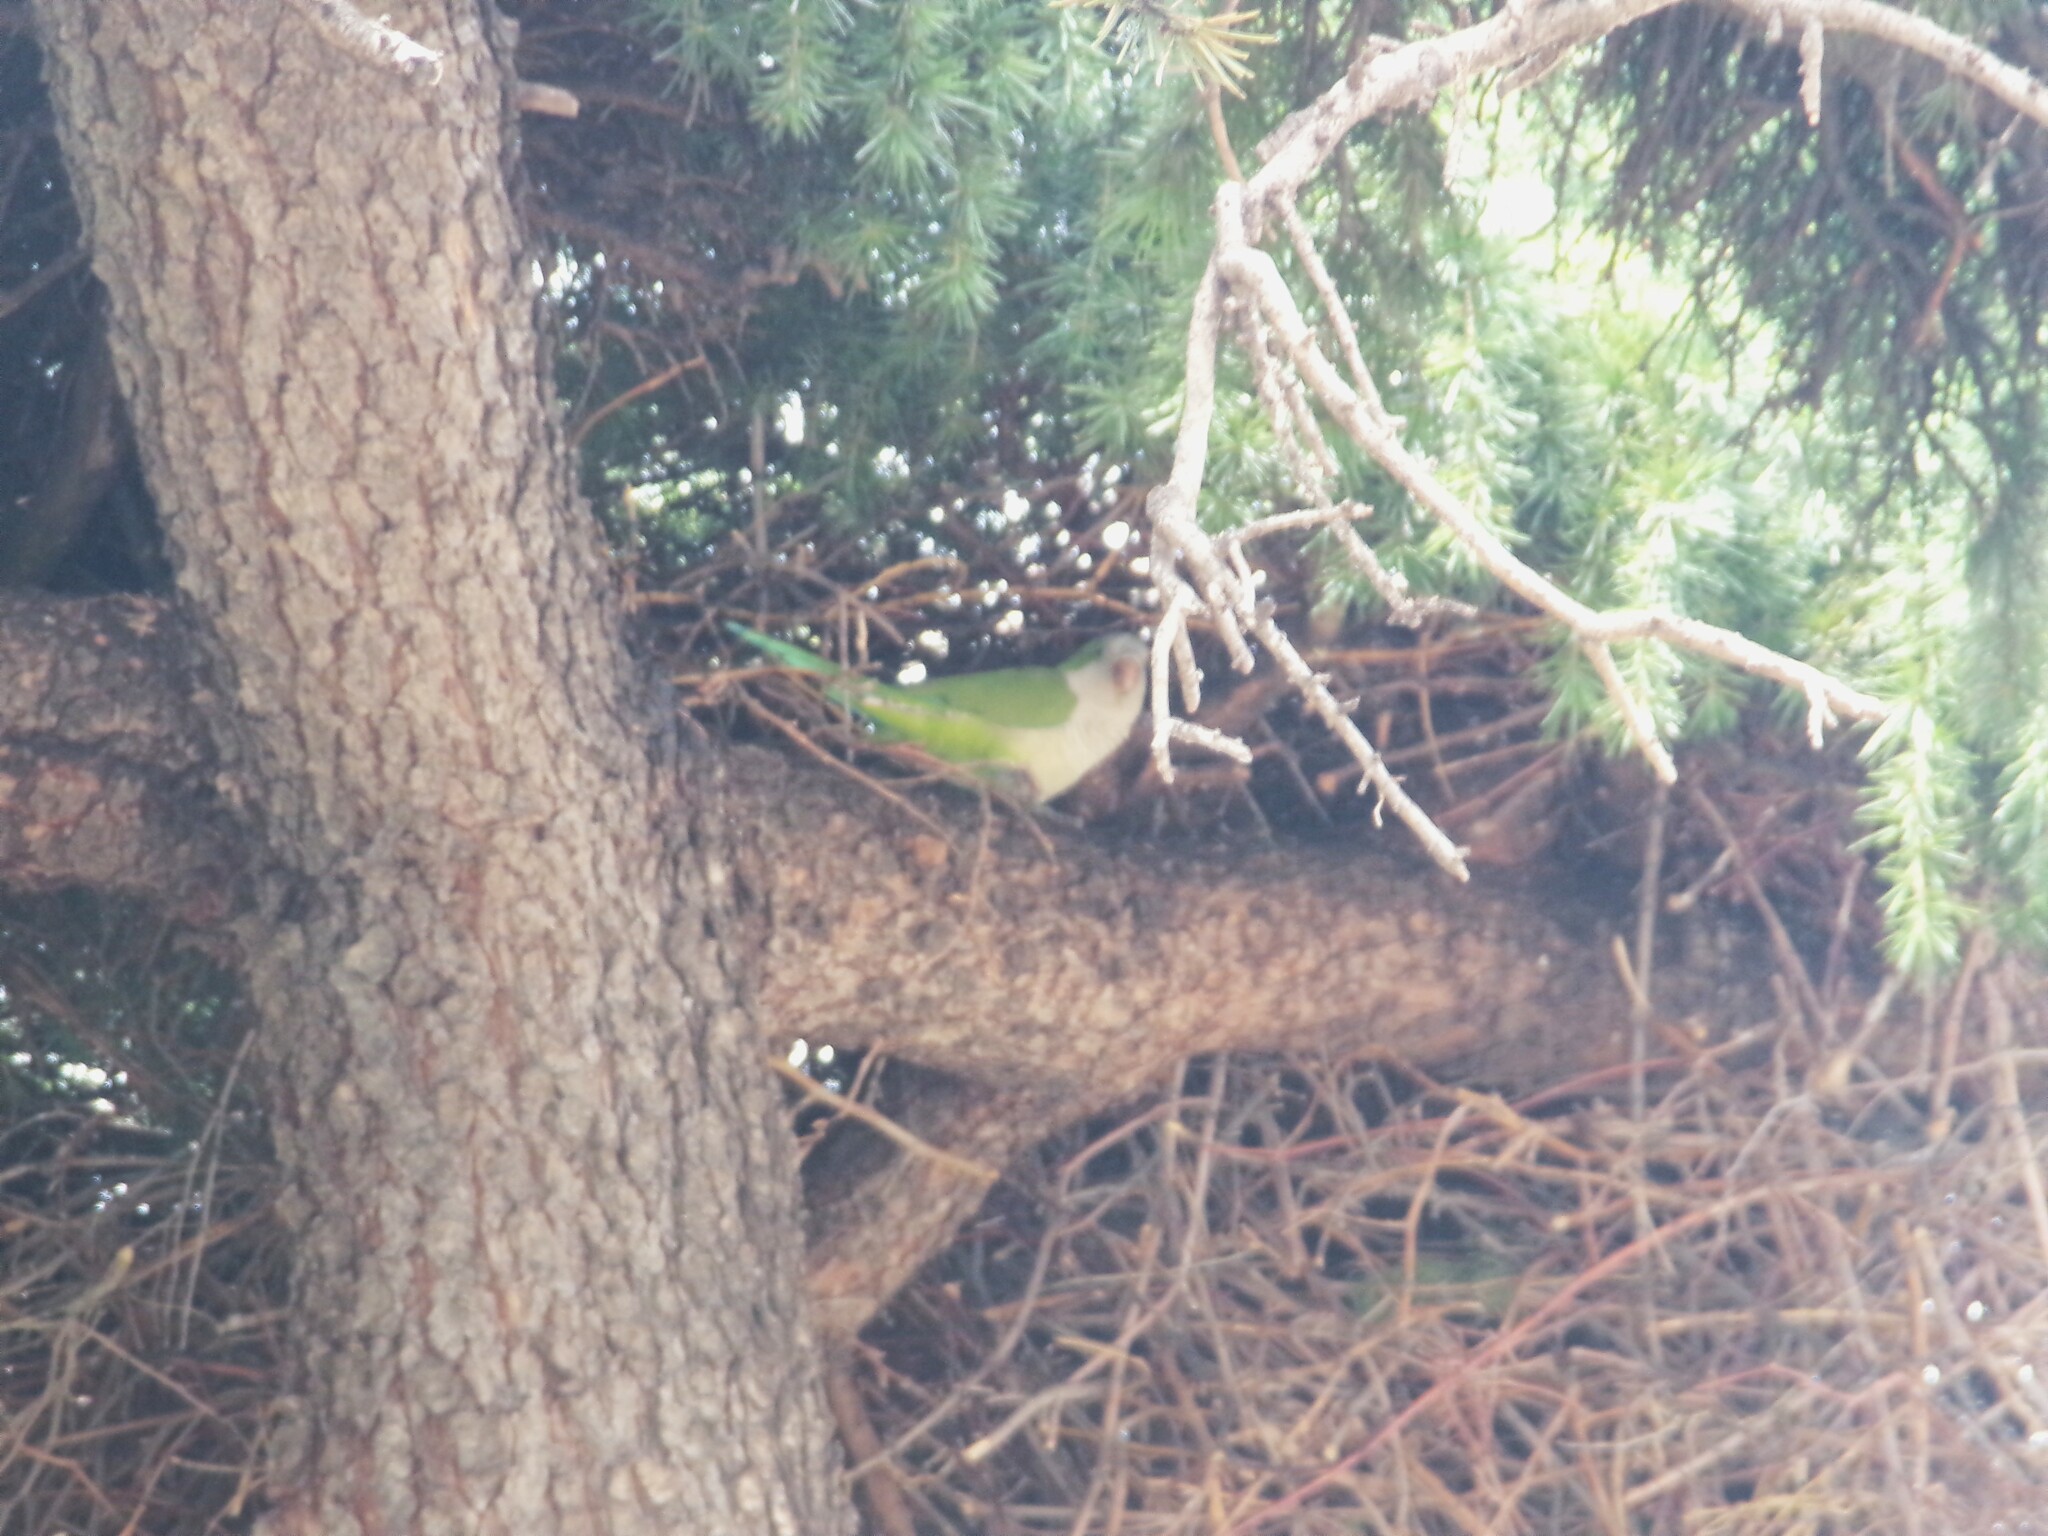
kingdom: Animalia
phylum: Chordata
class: Aves
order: Psittaciformes
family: Psittacidae
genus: Myiopsitta
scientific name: Myiopsitta monachus
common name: Monk parakeet
